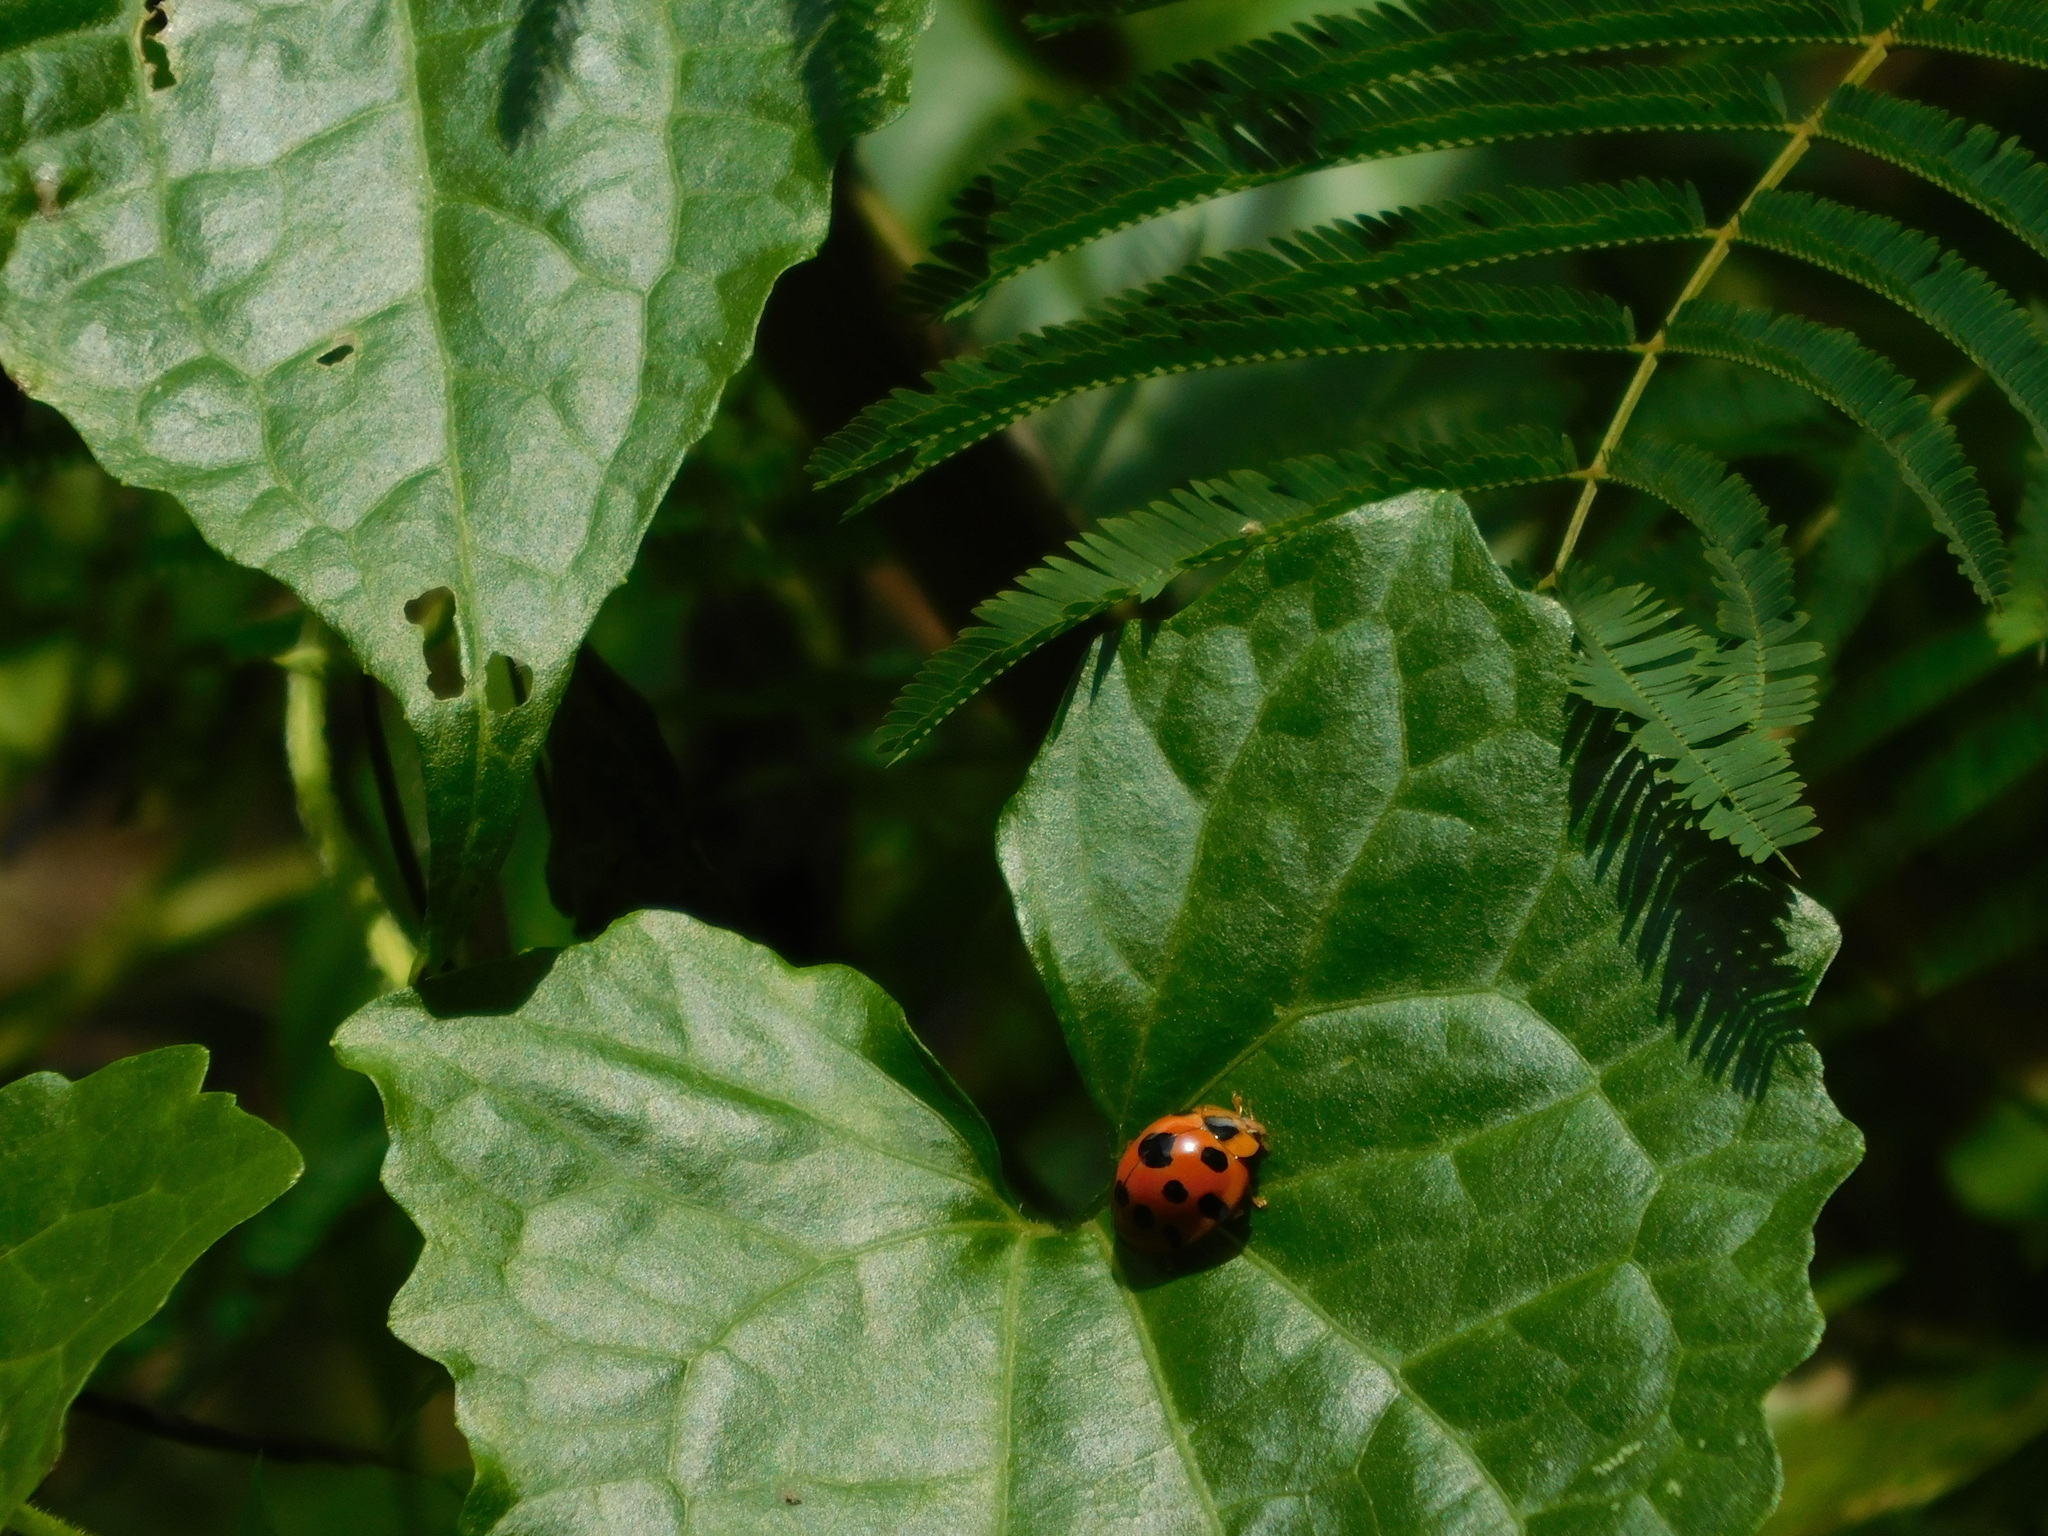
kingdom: Animalia
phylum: Arthropoda
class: Insecta
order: Coleoptera
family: Coccinellidae
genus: Synonycha
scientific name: Synonycha grandis
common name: Lady beetle
